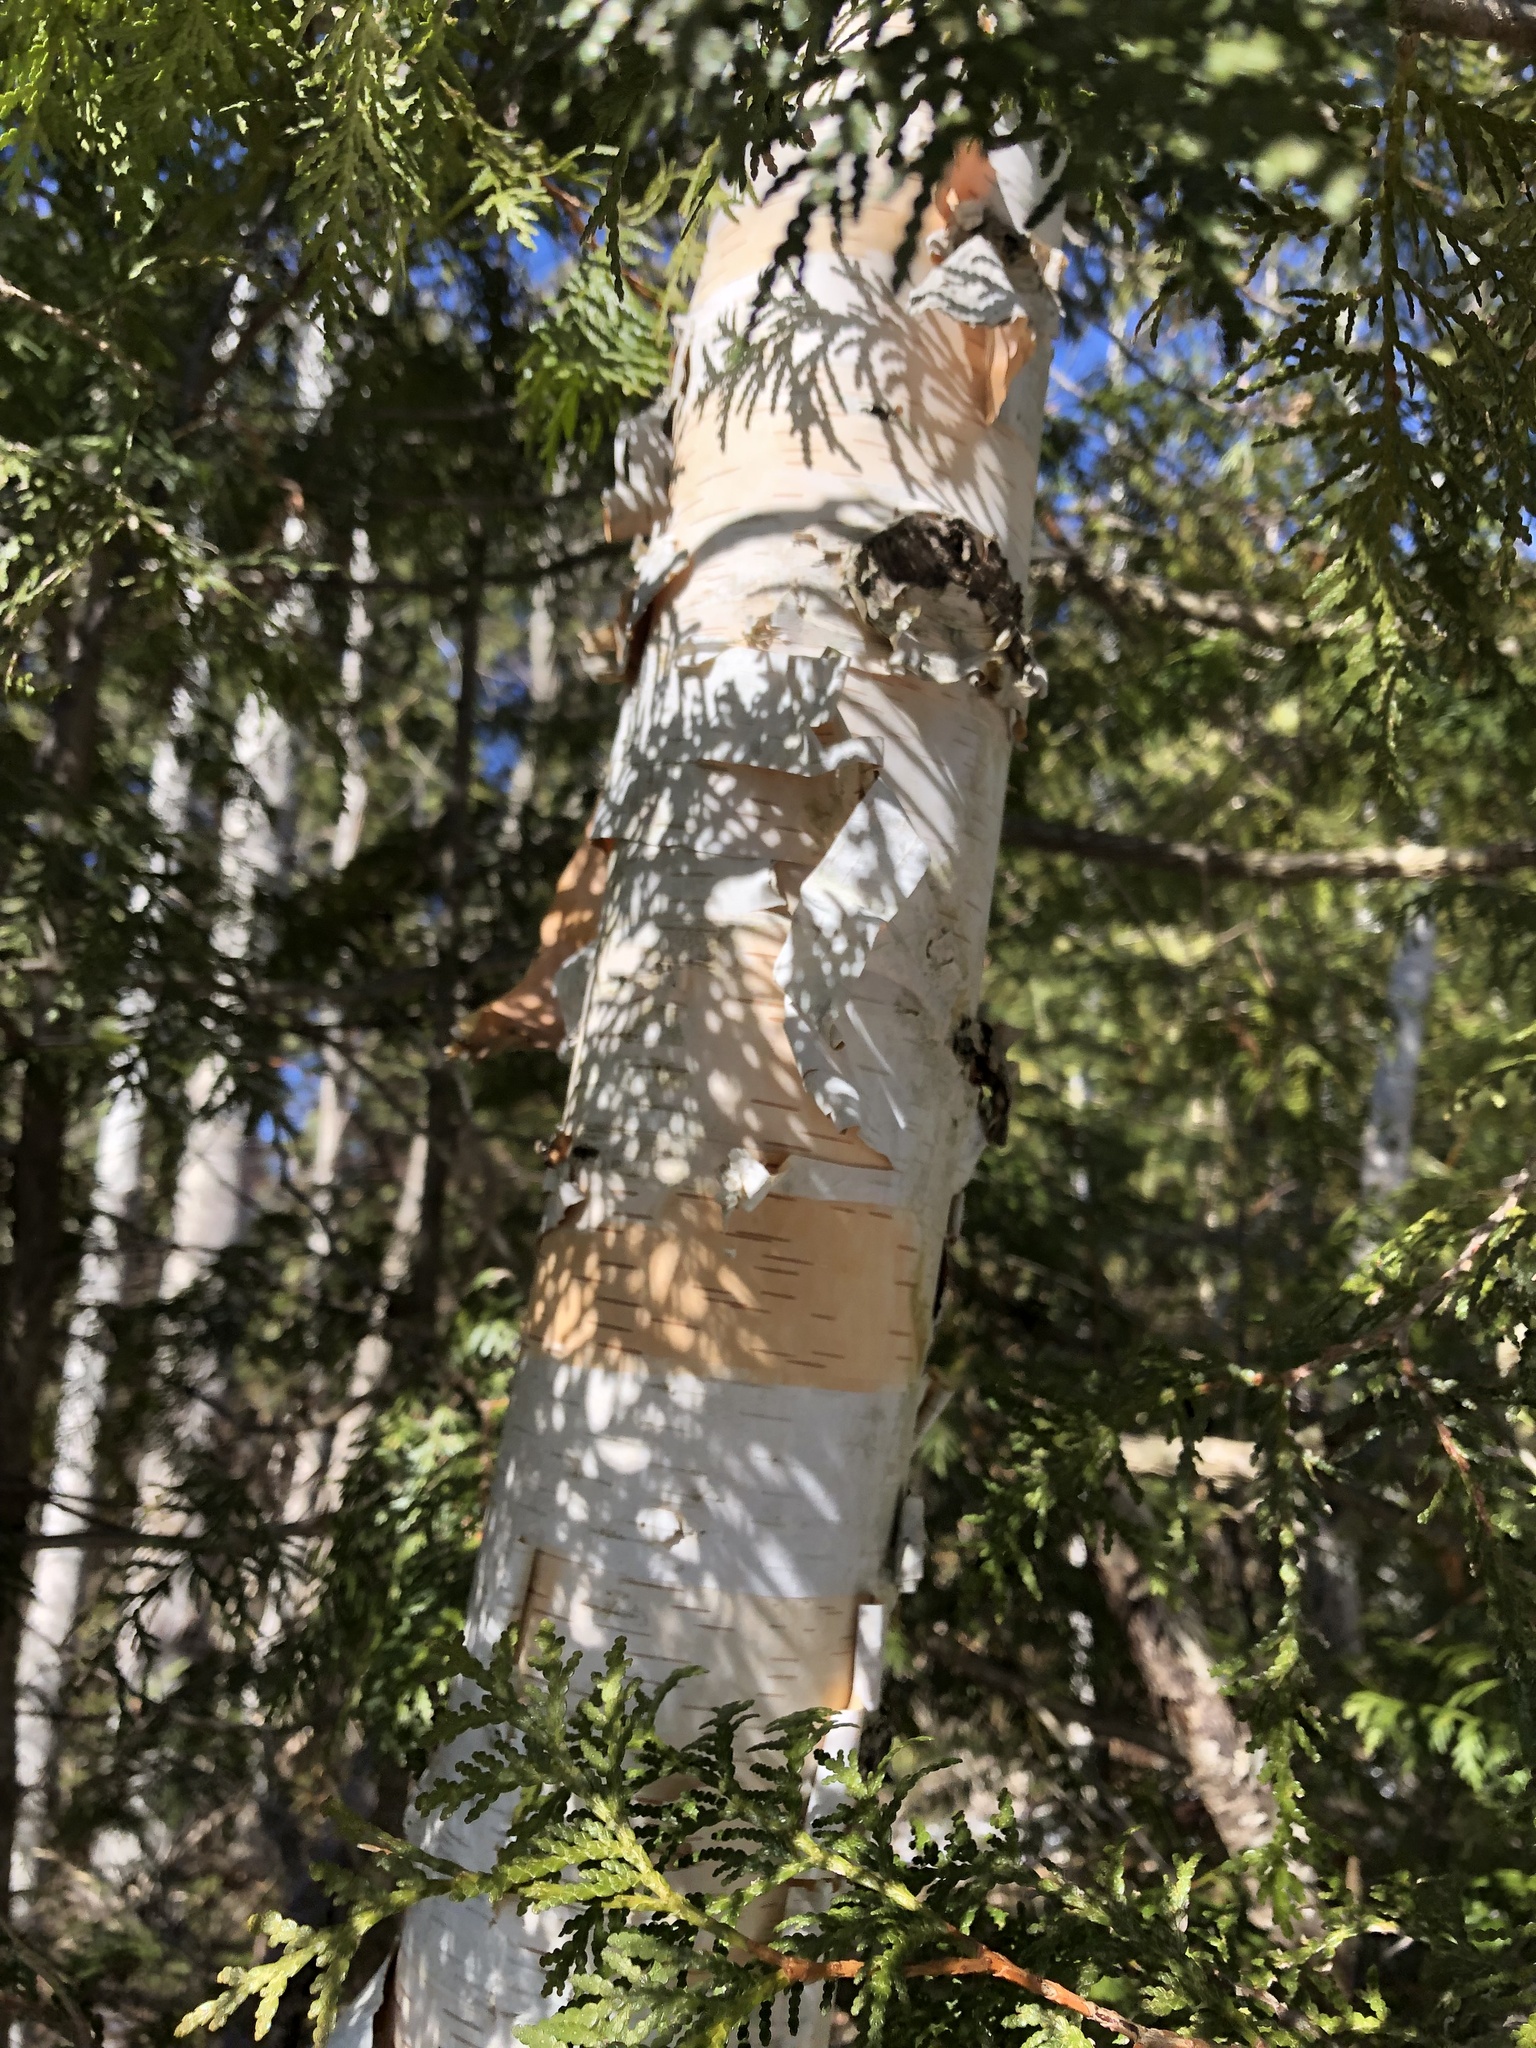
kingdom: Plantae
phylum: Tracheophyta
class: Magnoliopsida
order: Fagales
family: Betulaceae
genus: Betula
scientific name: Betula papyrifera
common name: Paper birch
